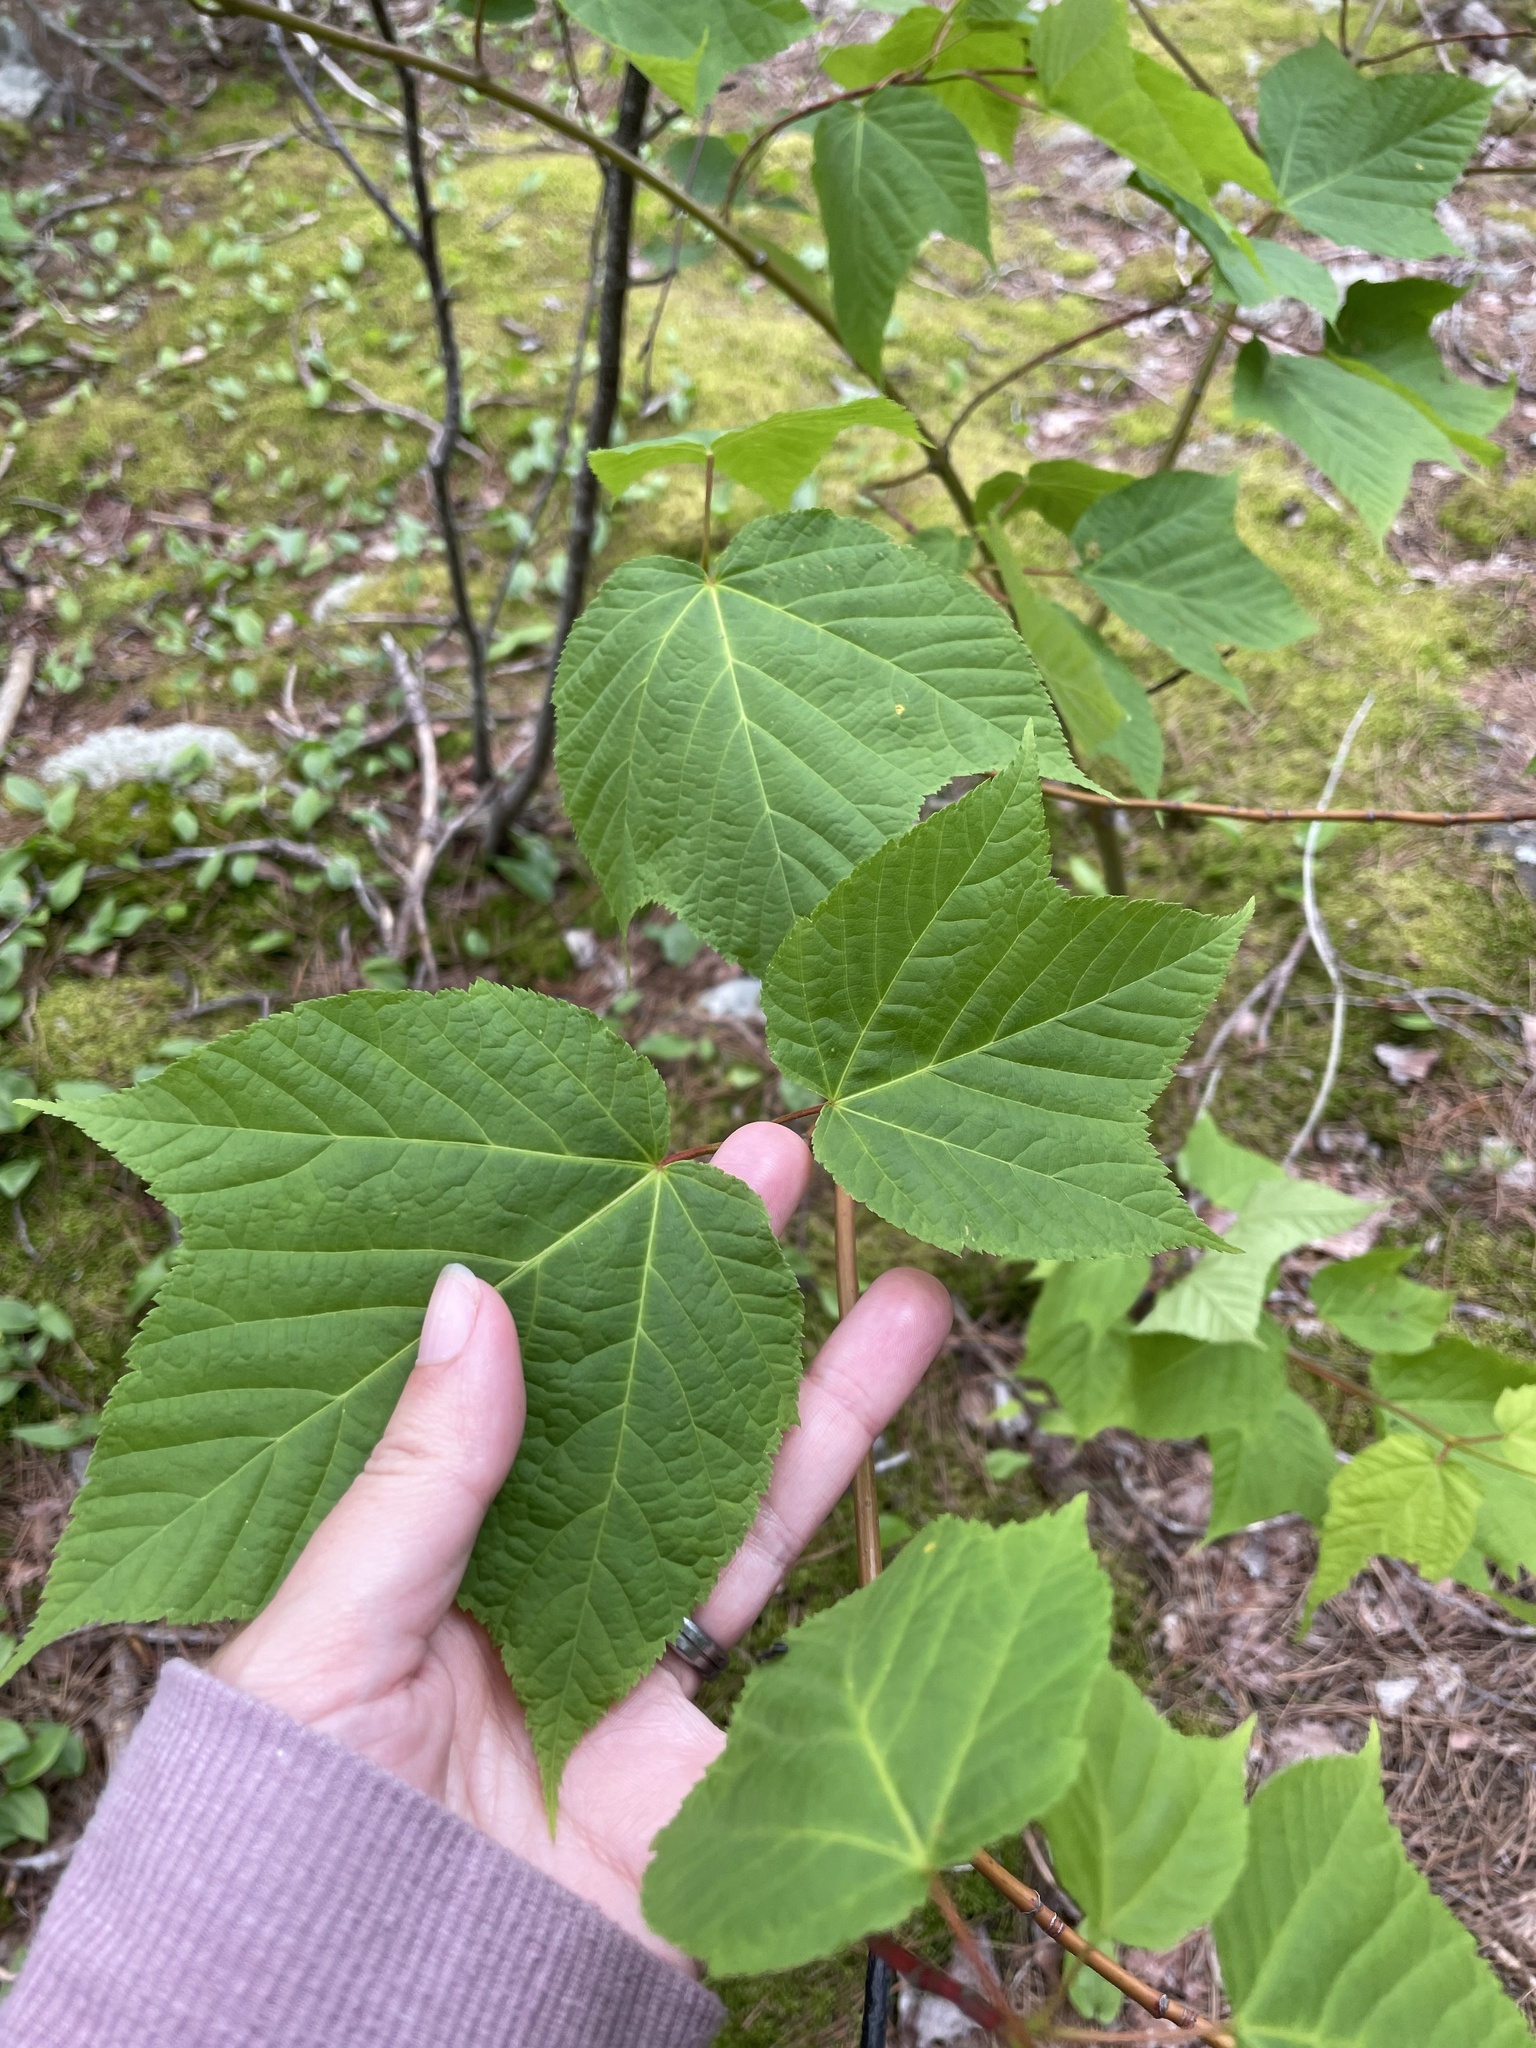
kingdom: Plantae
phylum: Tracheophyta
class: Magnoliopsida
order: Sapindales
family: Sapindaceae
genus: Acer
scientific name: Acer pensylvanicum
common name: Moosewood
